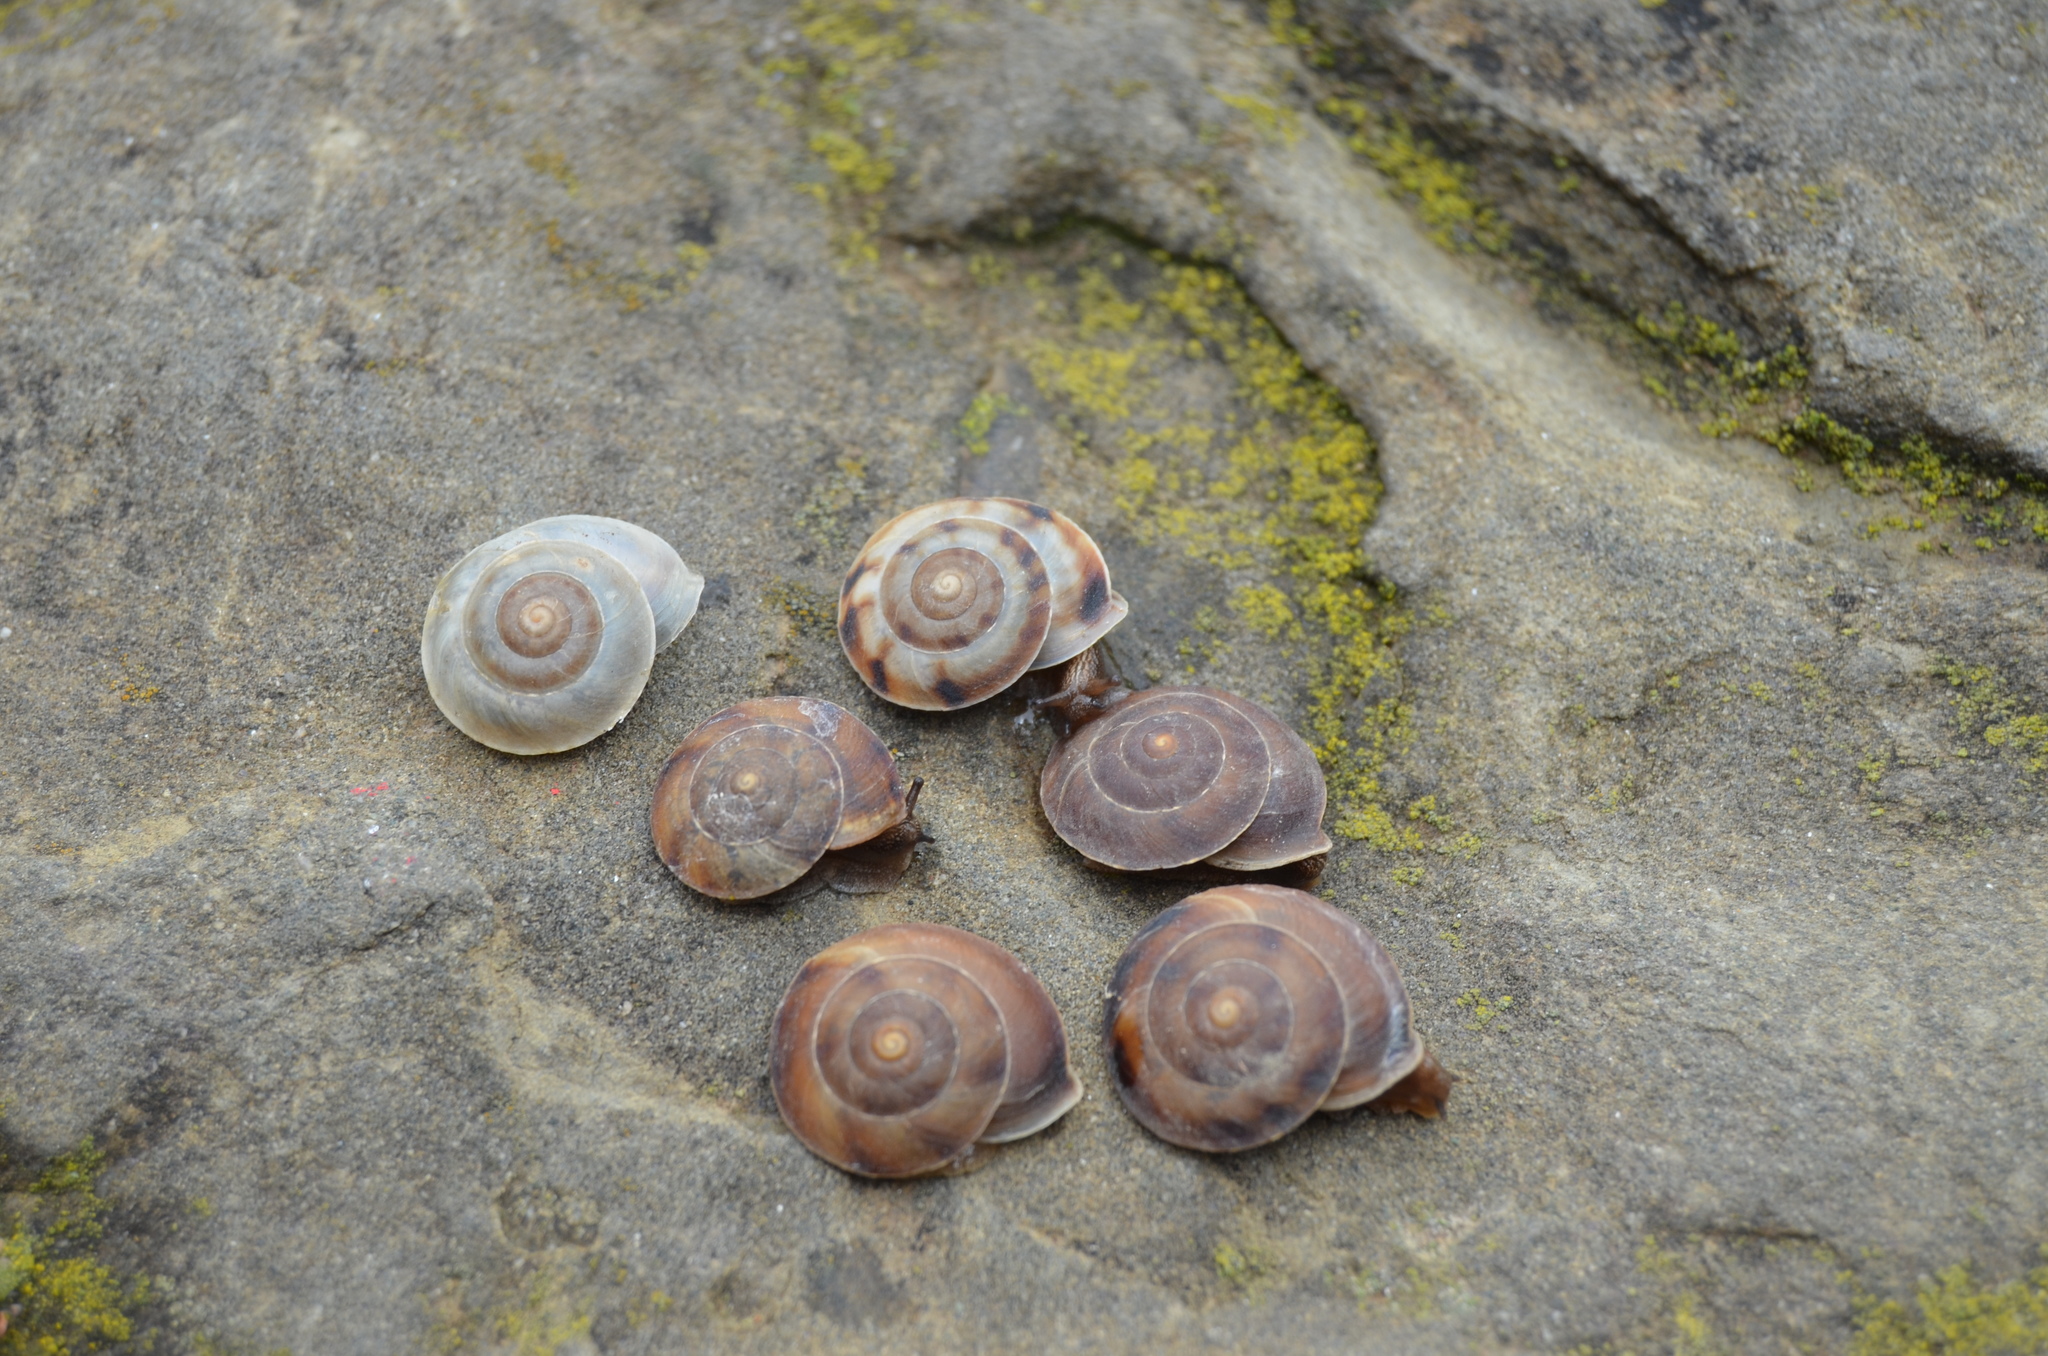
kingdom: Animalia
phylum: Mollusca
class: Gastropoda
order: Stylommatophora
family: Helicidae
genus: Helicigona
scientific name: Helicigona lapicida
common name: Lapidary snail
